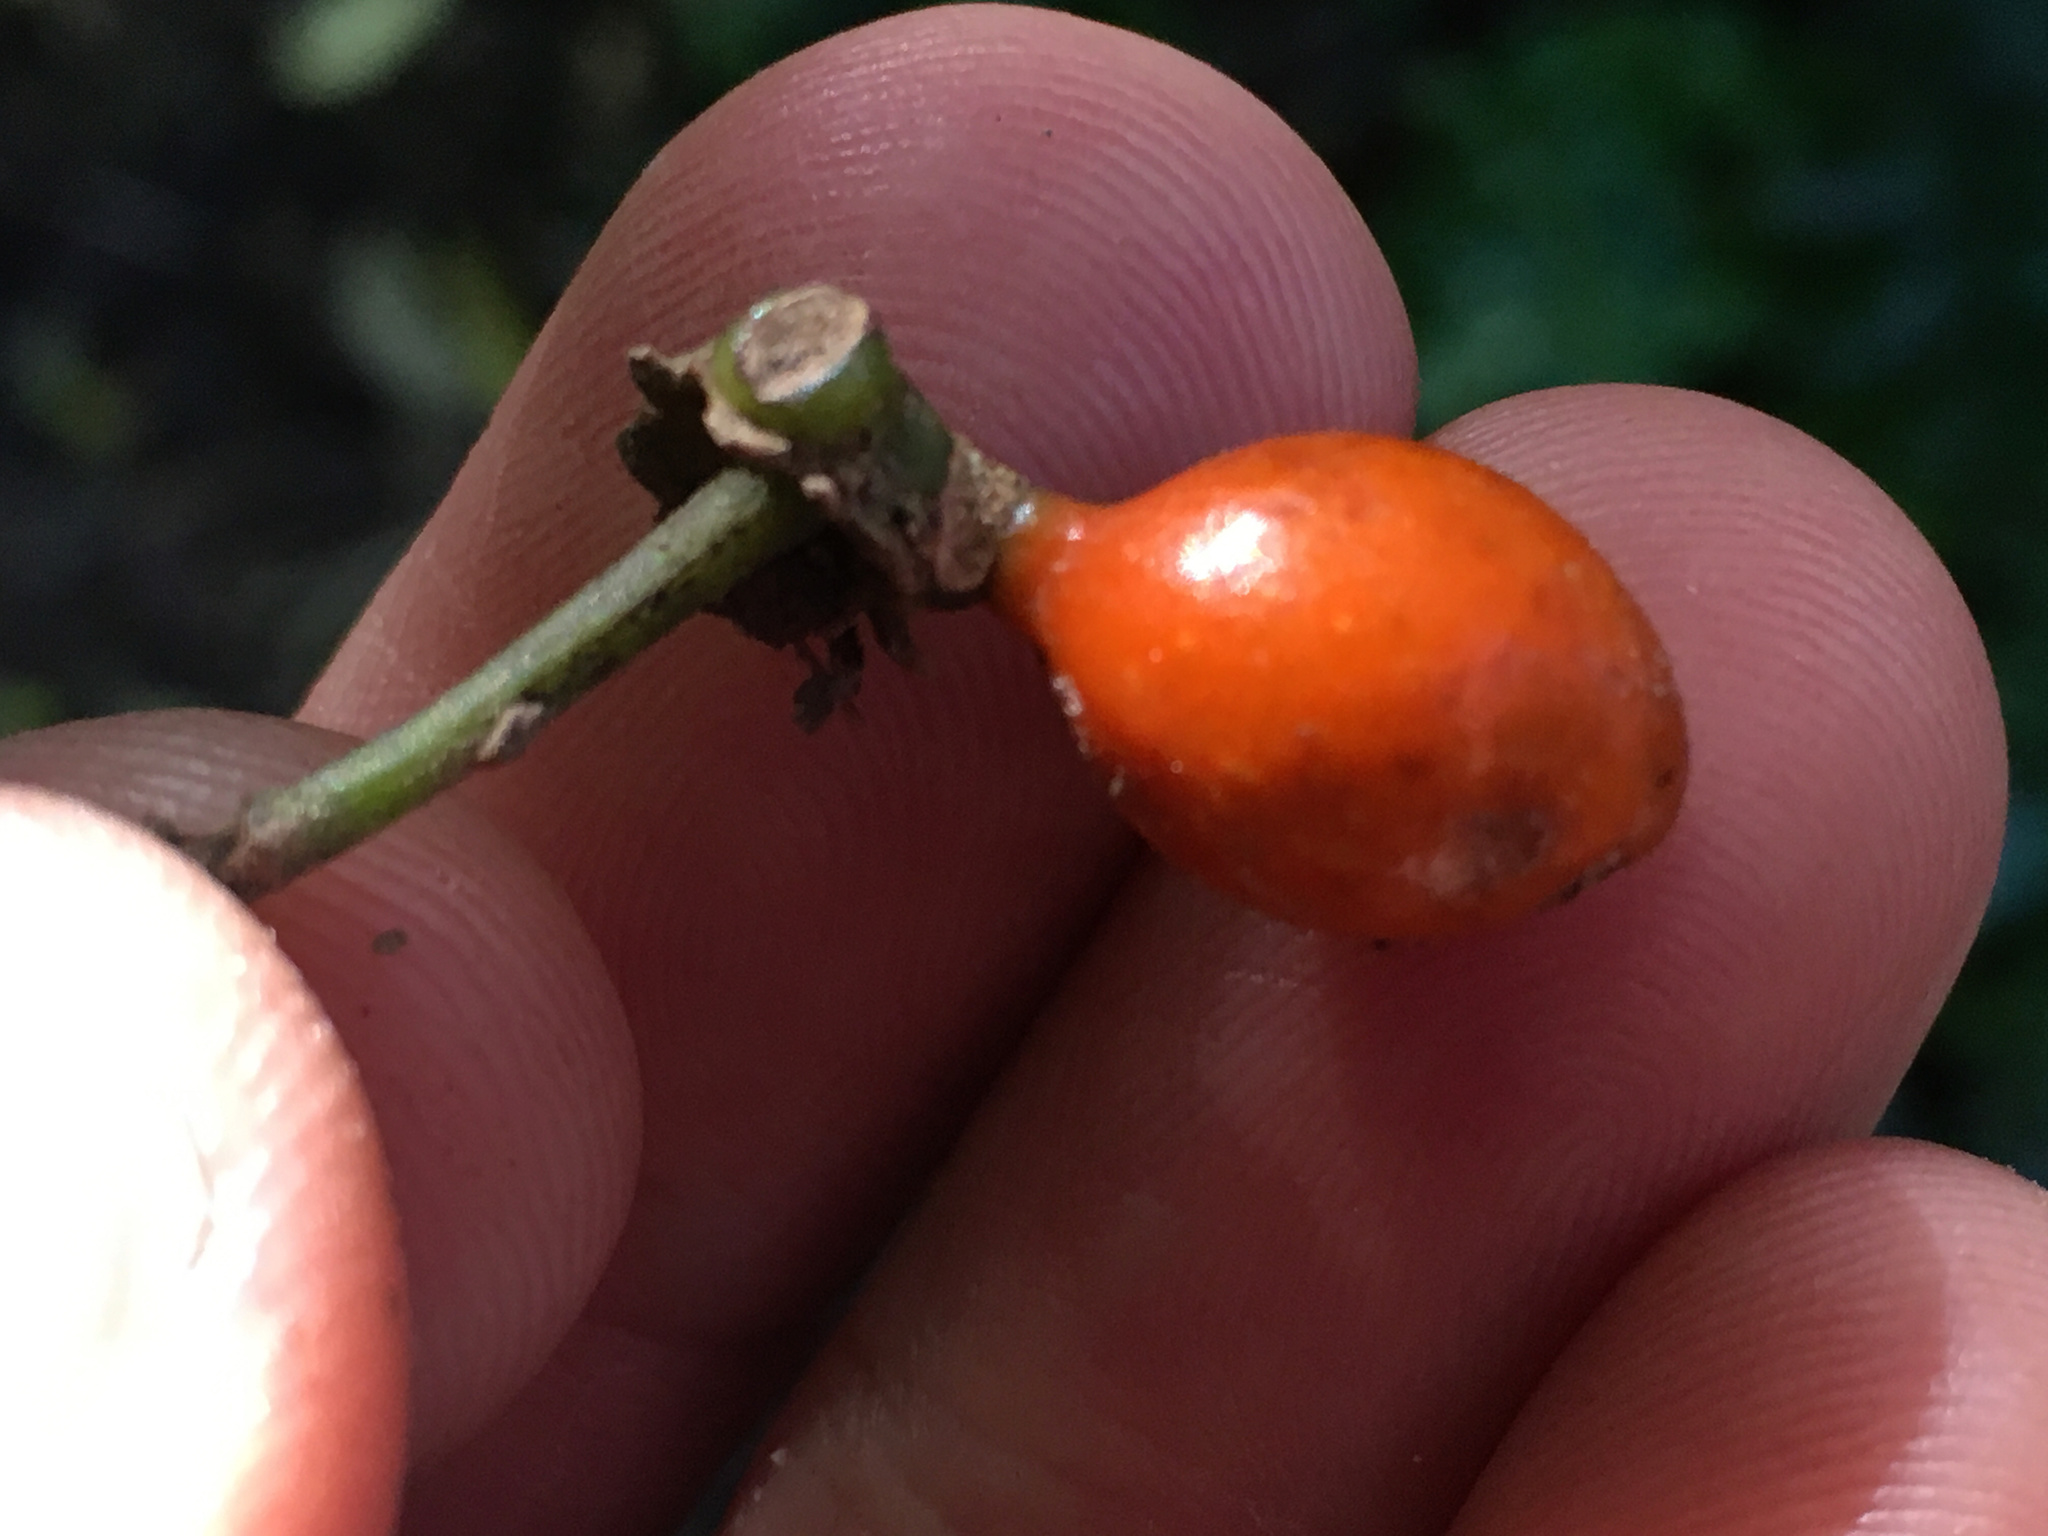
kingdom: Plantae
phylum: Tracheophyta
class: Magnoliopsida
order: Laurales
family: Monimiaceae
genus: Hedycarya
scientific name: Hedycarya arborea
